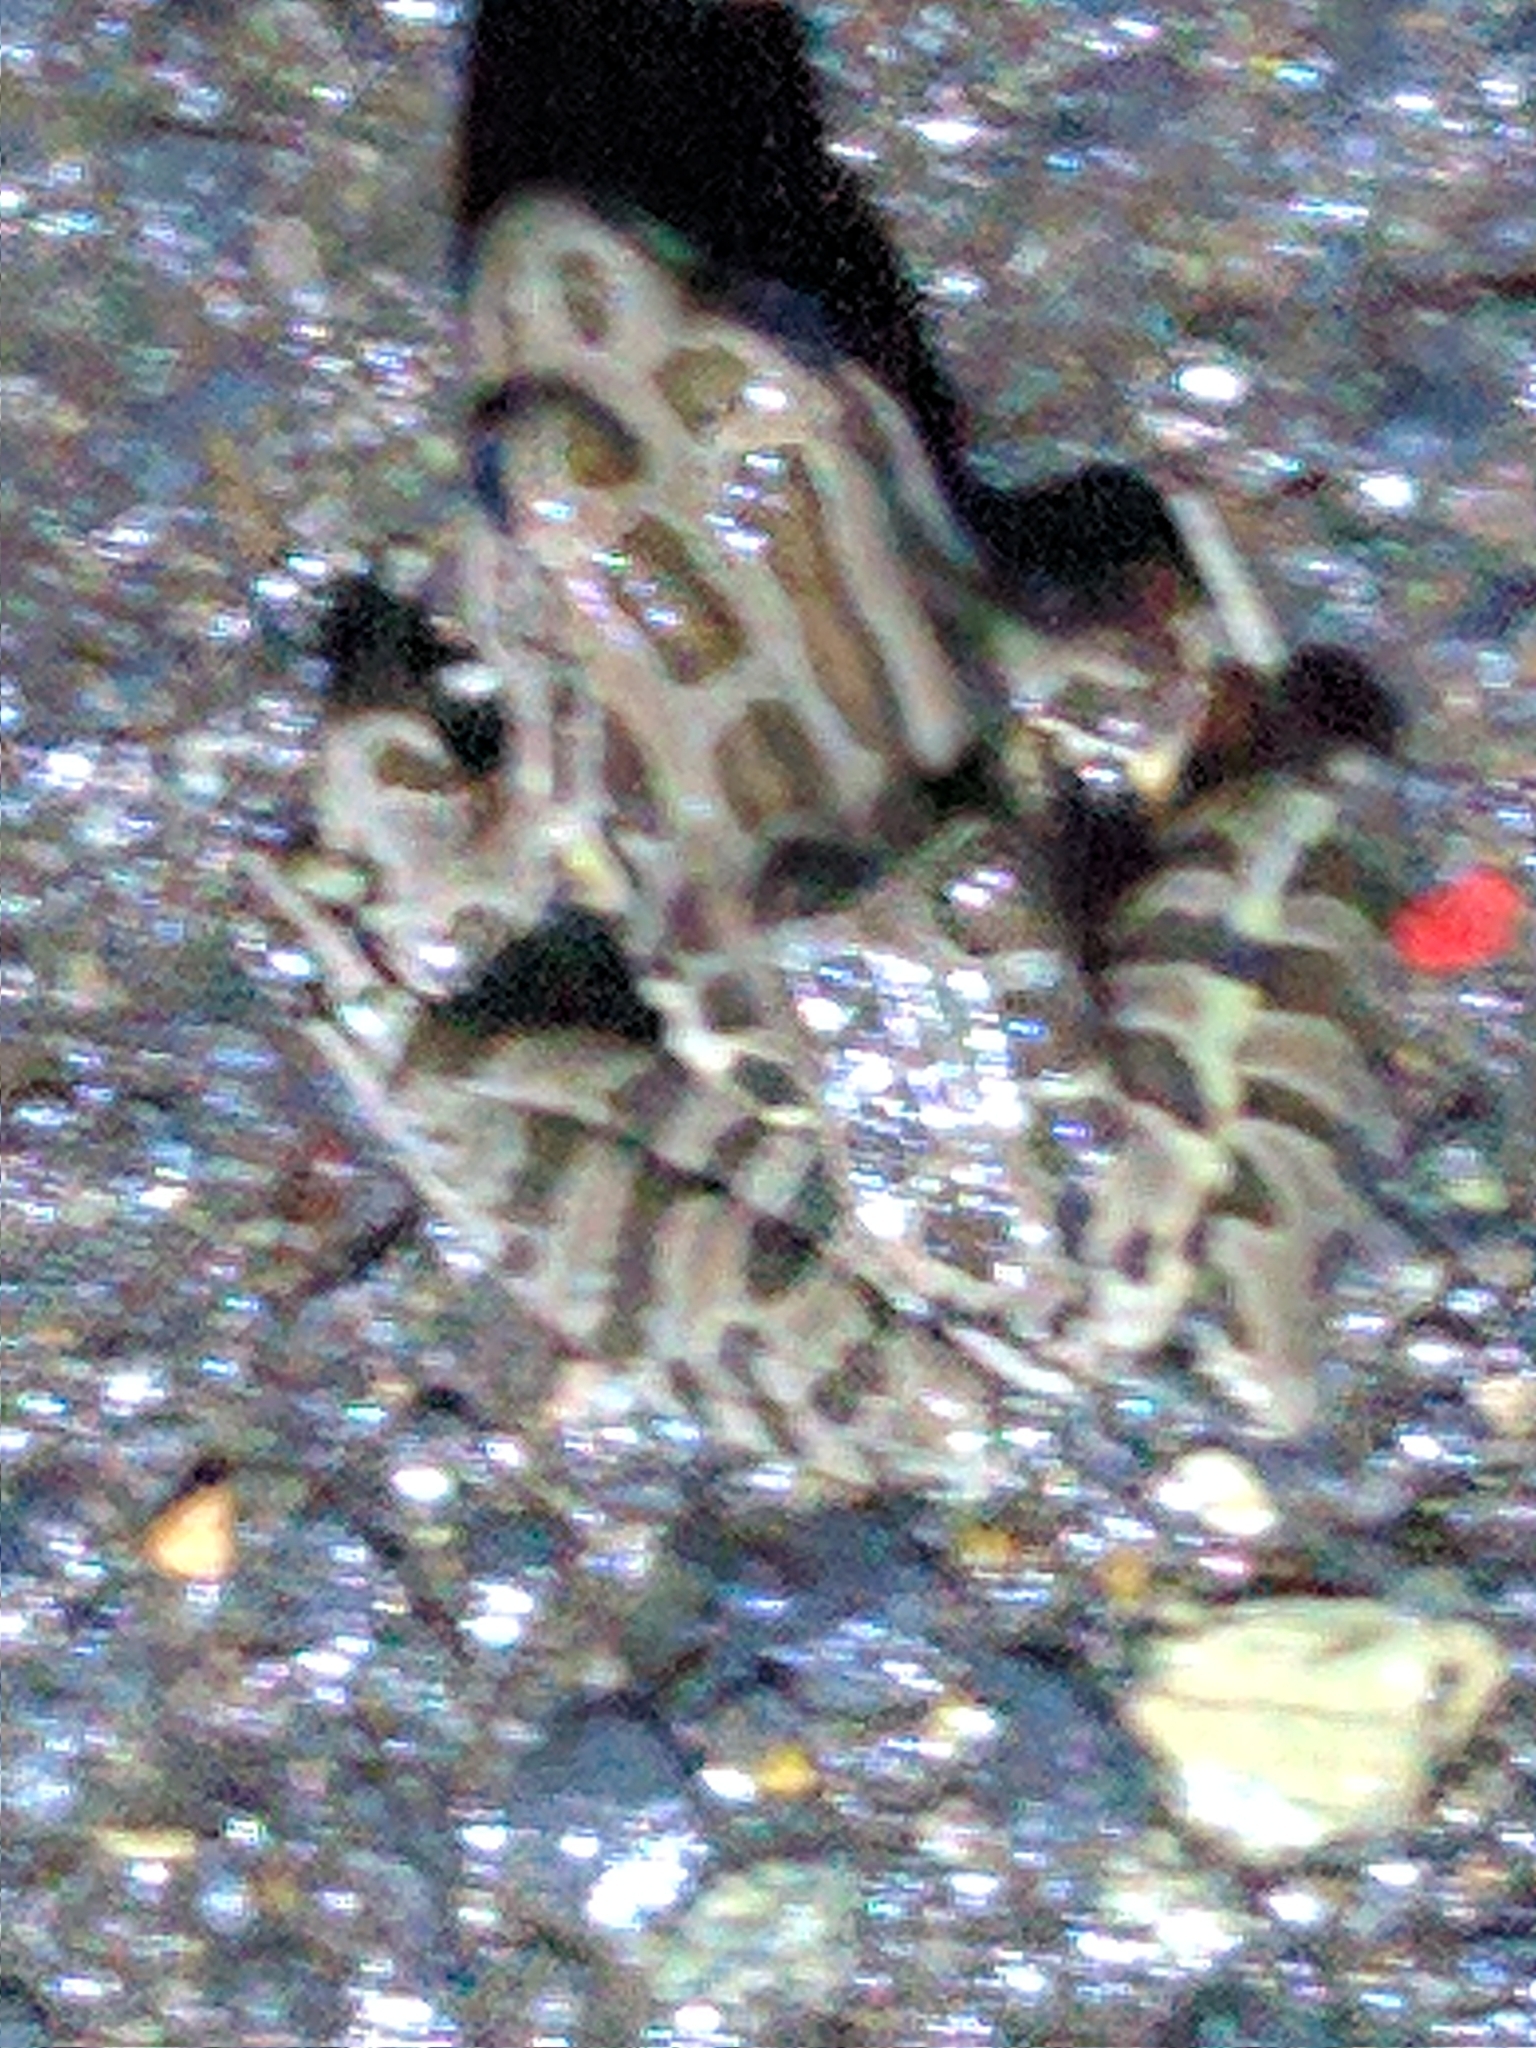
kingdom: Animalia
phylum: Chordata
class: Amphibia
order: Anura
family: Ranidae
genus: Lithobates
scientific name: Lithobates palustris
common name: Pickerel frog
